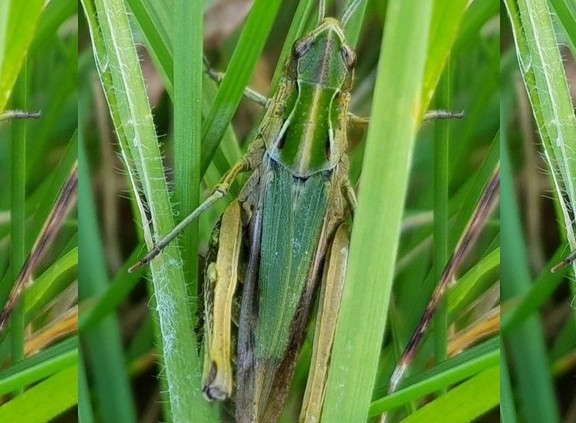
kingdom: Animalia
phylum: Arthropoda
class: Insecta
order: Orthoptera
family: Acrididae
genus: Omocestus
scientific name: Omocestus viridulus
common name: Common green grasshopper
